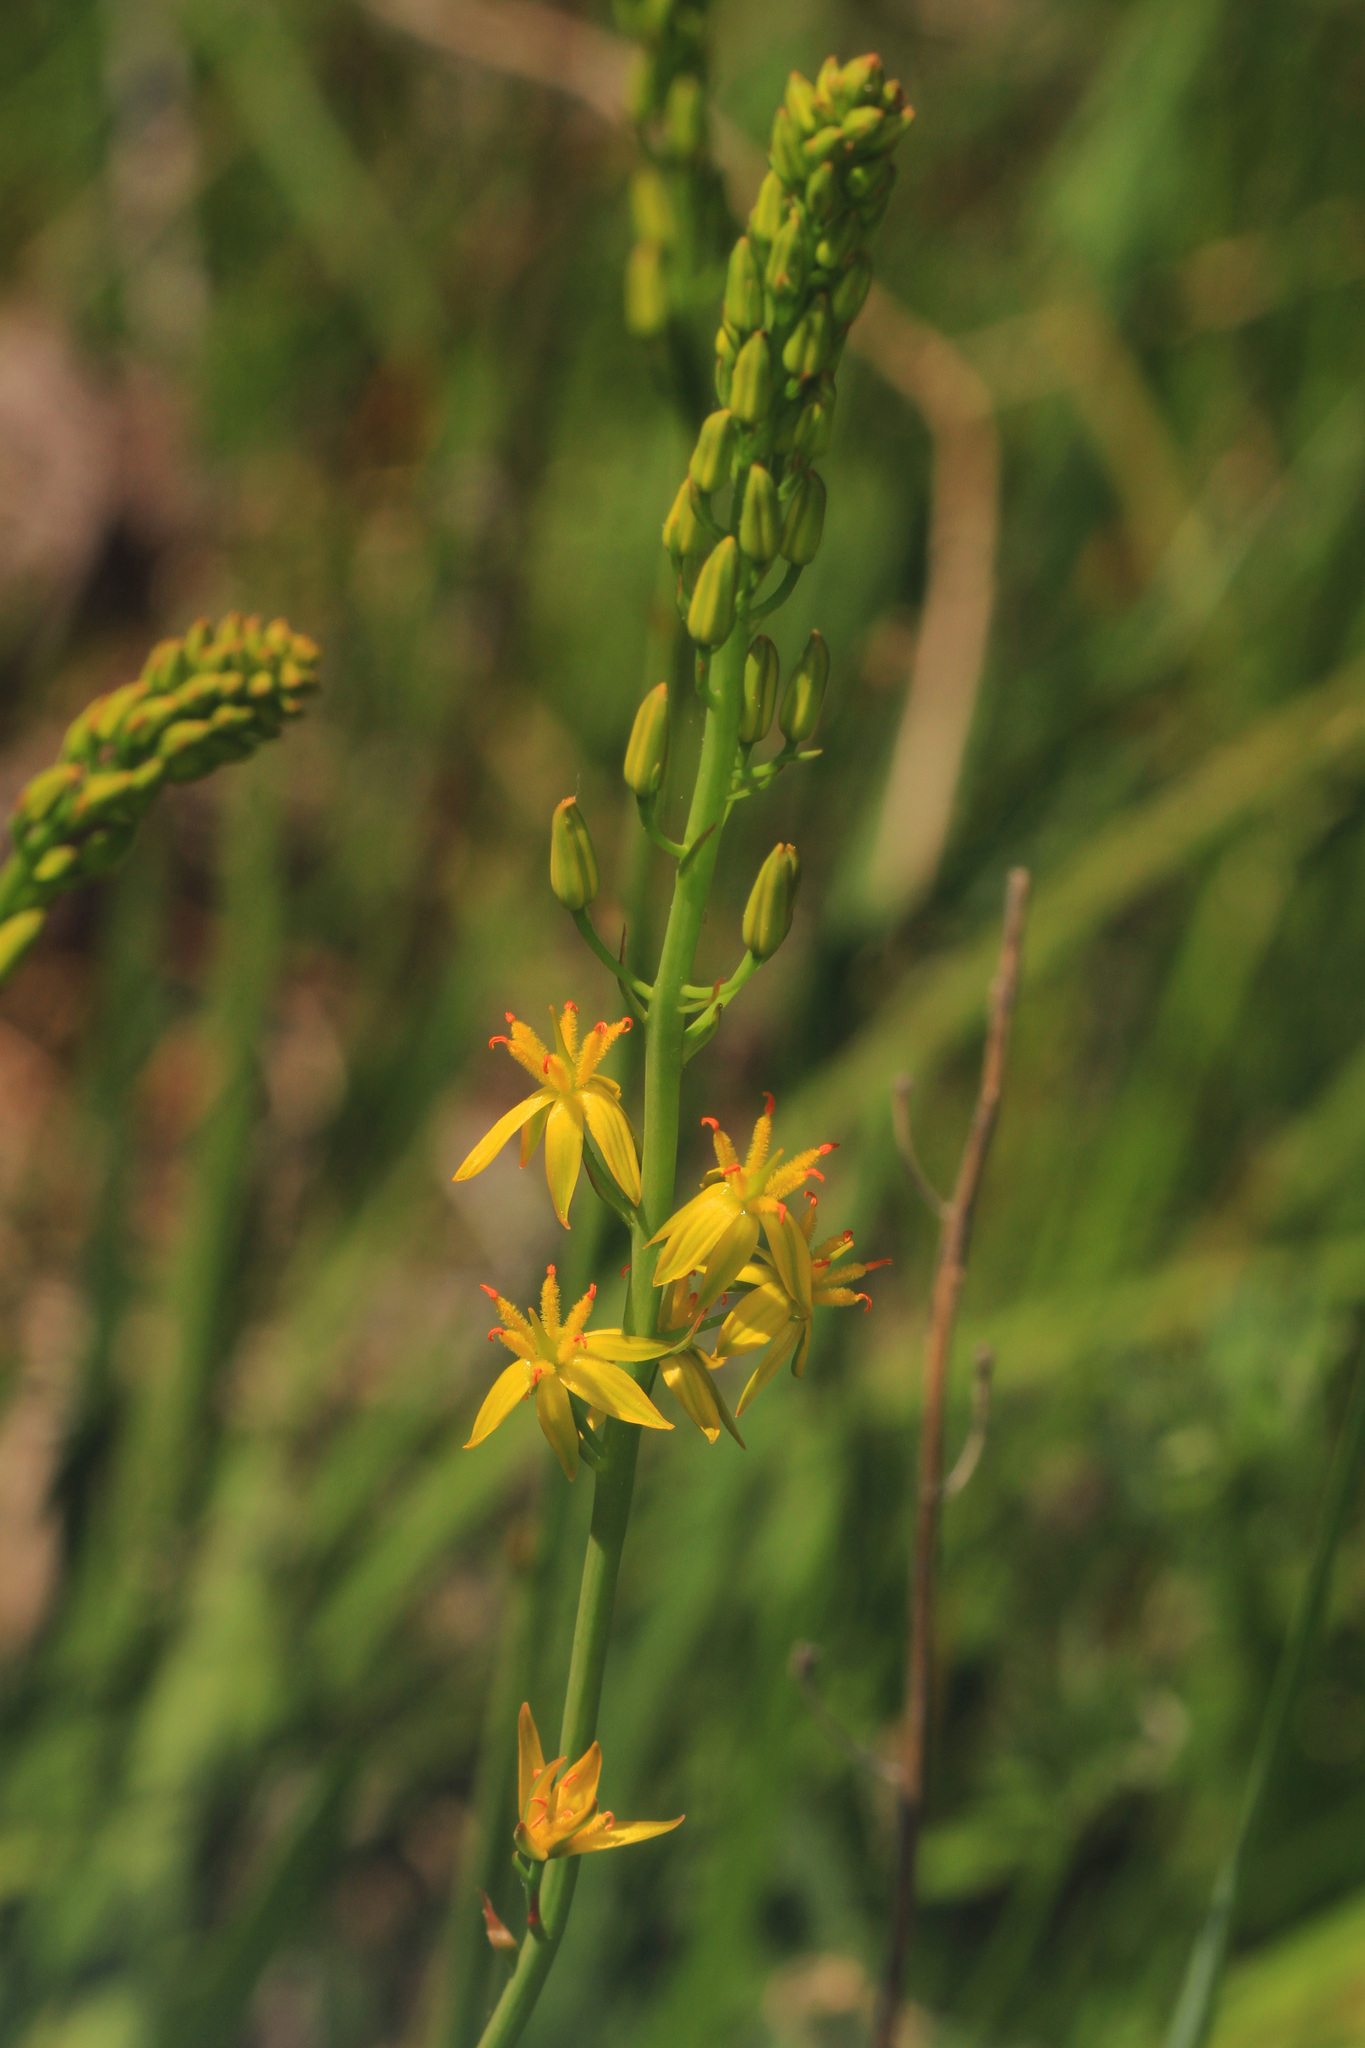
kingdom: Plantae
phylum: Tracheophyta
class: Liliopsida
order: Dioscoreales
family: Nartheciaceae
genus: Narthecium
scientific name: Narthecium californicum
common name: California bog-asphodel
